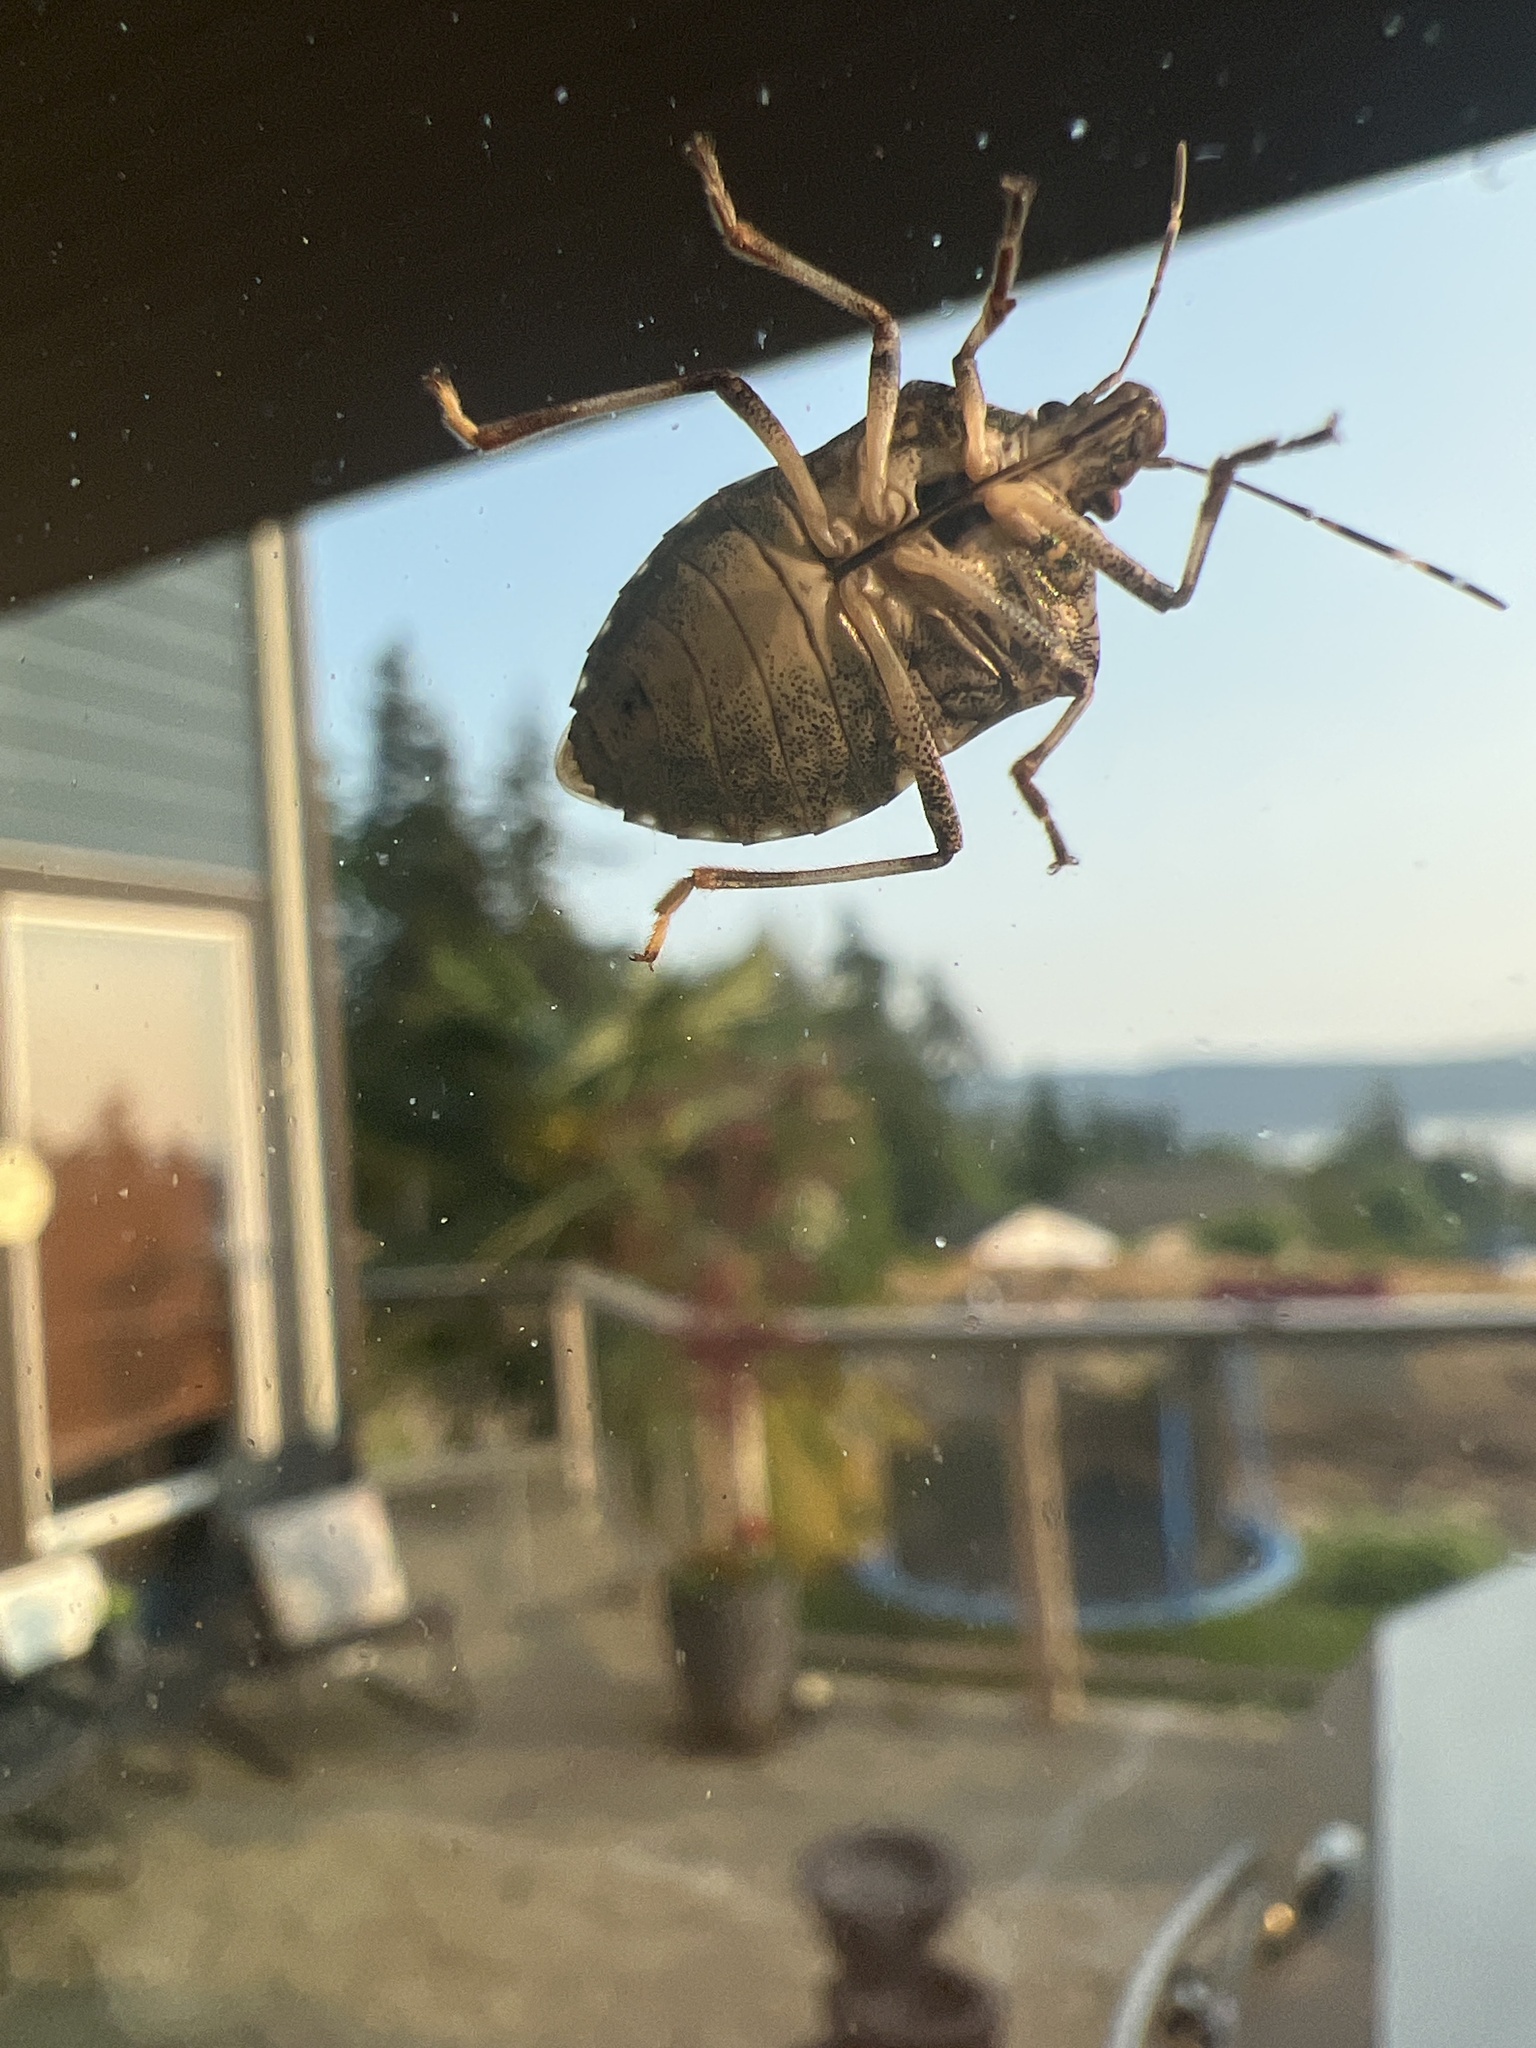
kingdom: Animalia
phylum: Arthropoda
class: Insecta
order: Hemiptera
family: Pentatomidae
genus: Halyomorpha
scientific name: Halyomorpha halys
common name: Brown marmorated stink bug
